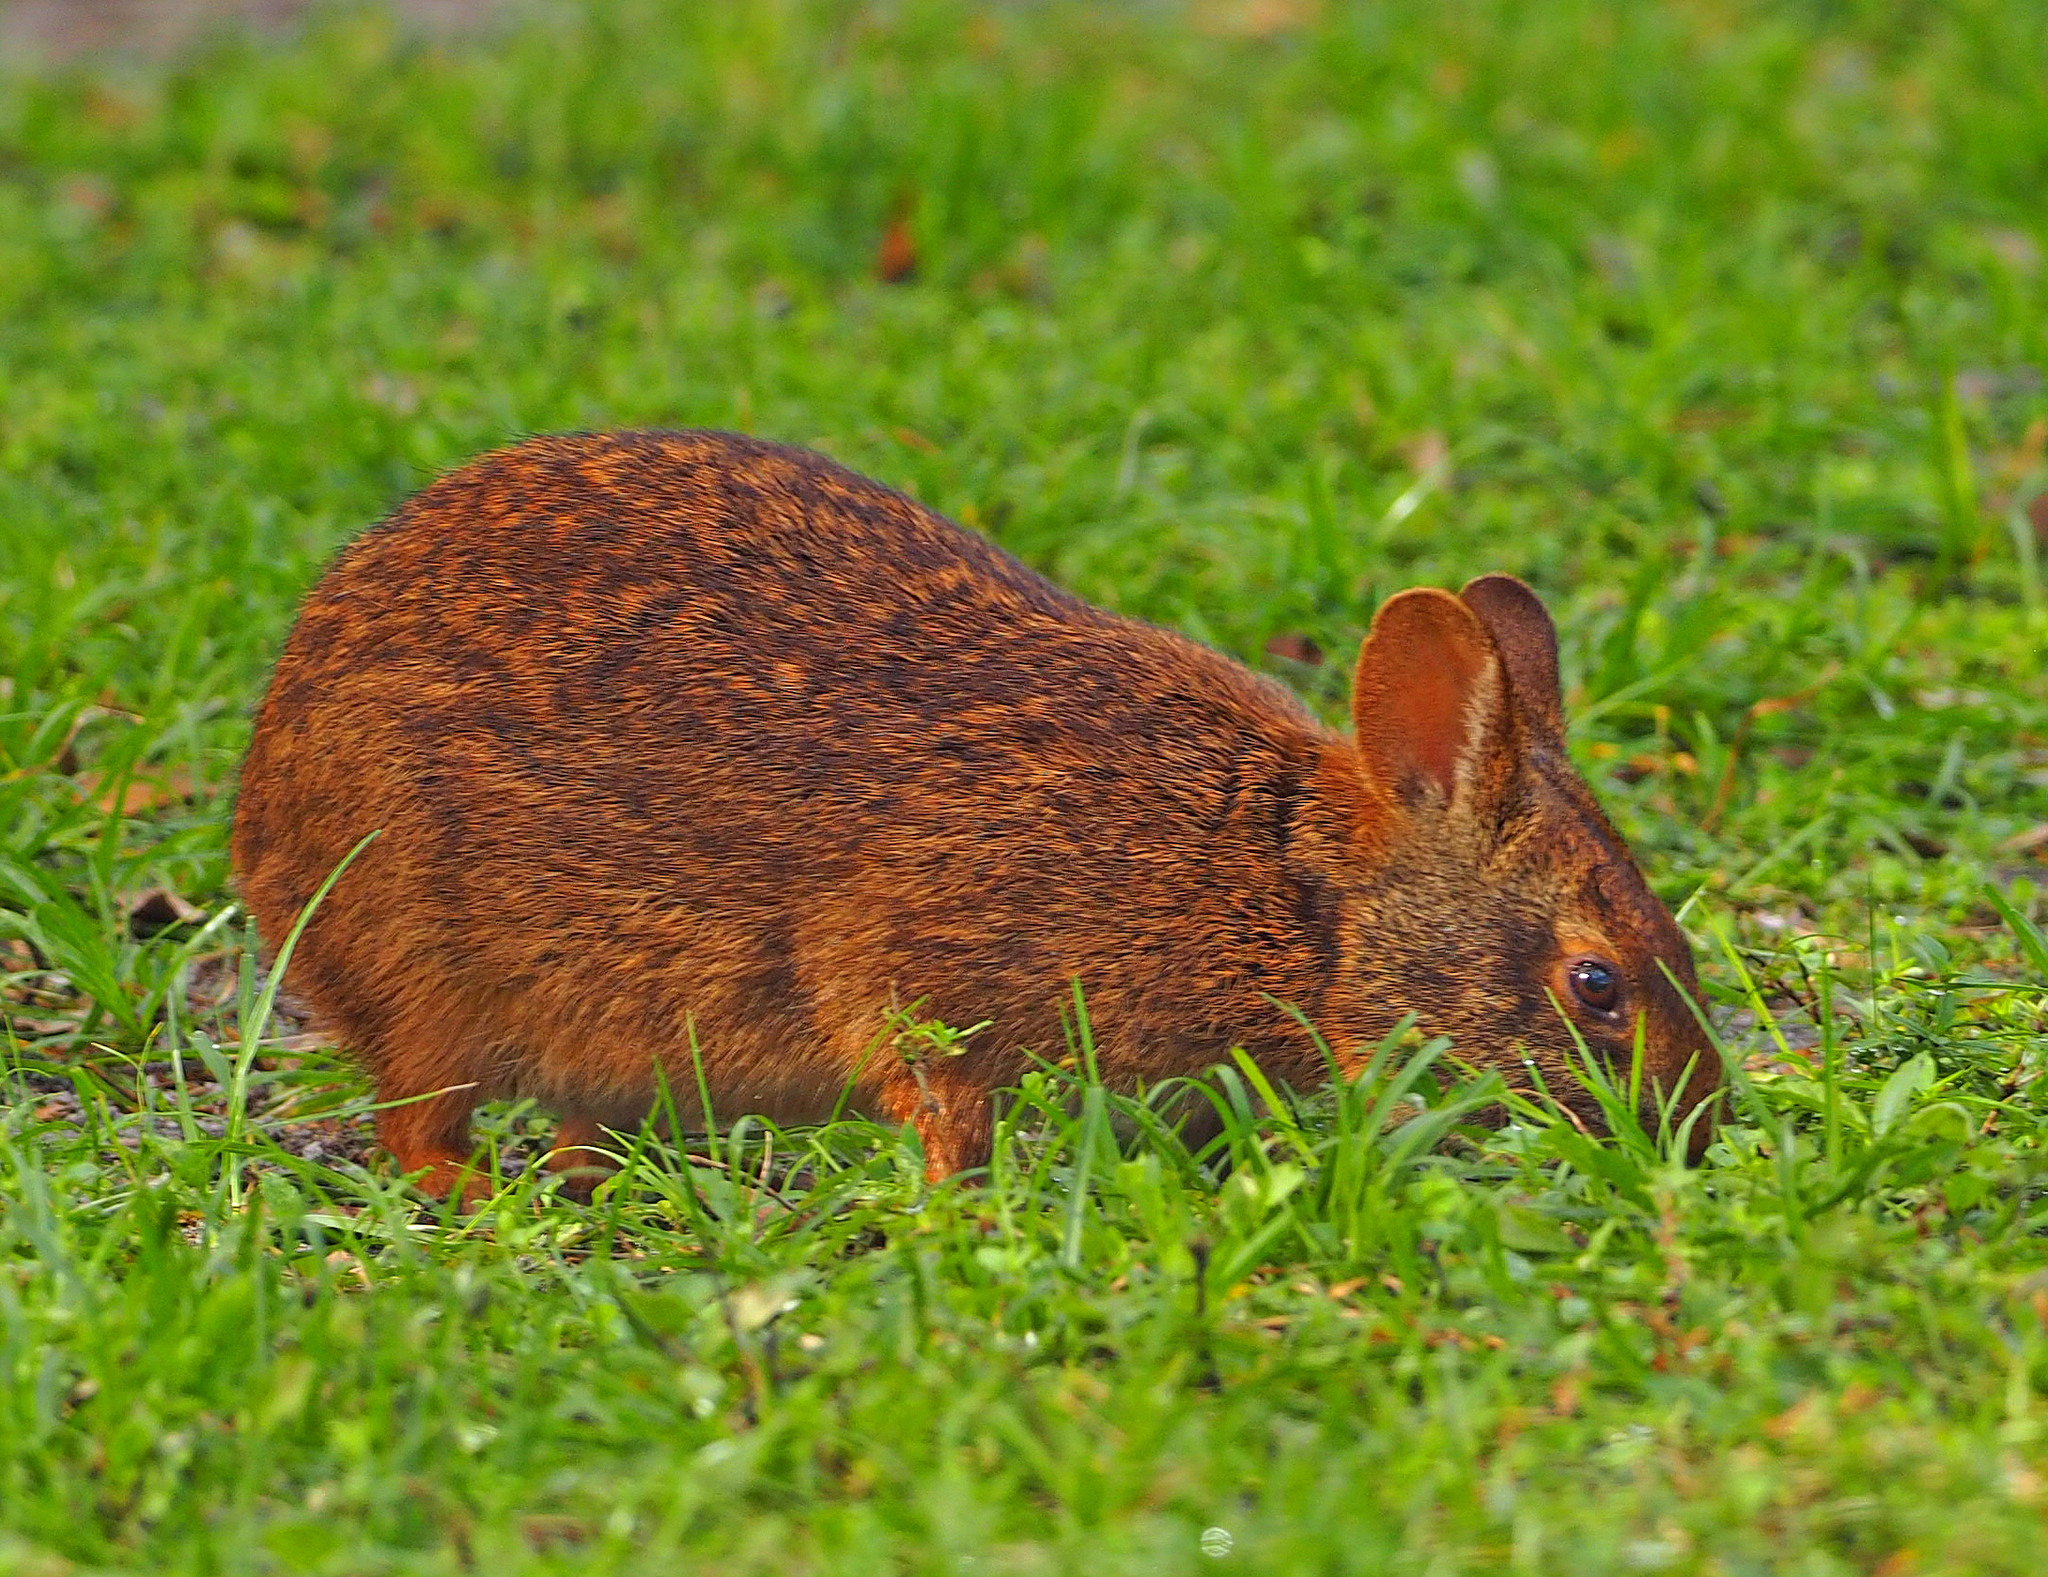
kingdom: Animalia
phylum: Chordata
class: Mammalia
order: Lagomorpha
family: Leporidae
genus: Sylvilagus
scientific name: Sylvilagus palustris
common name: Marsh rabbit
